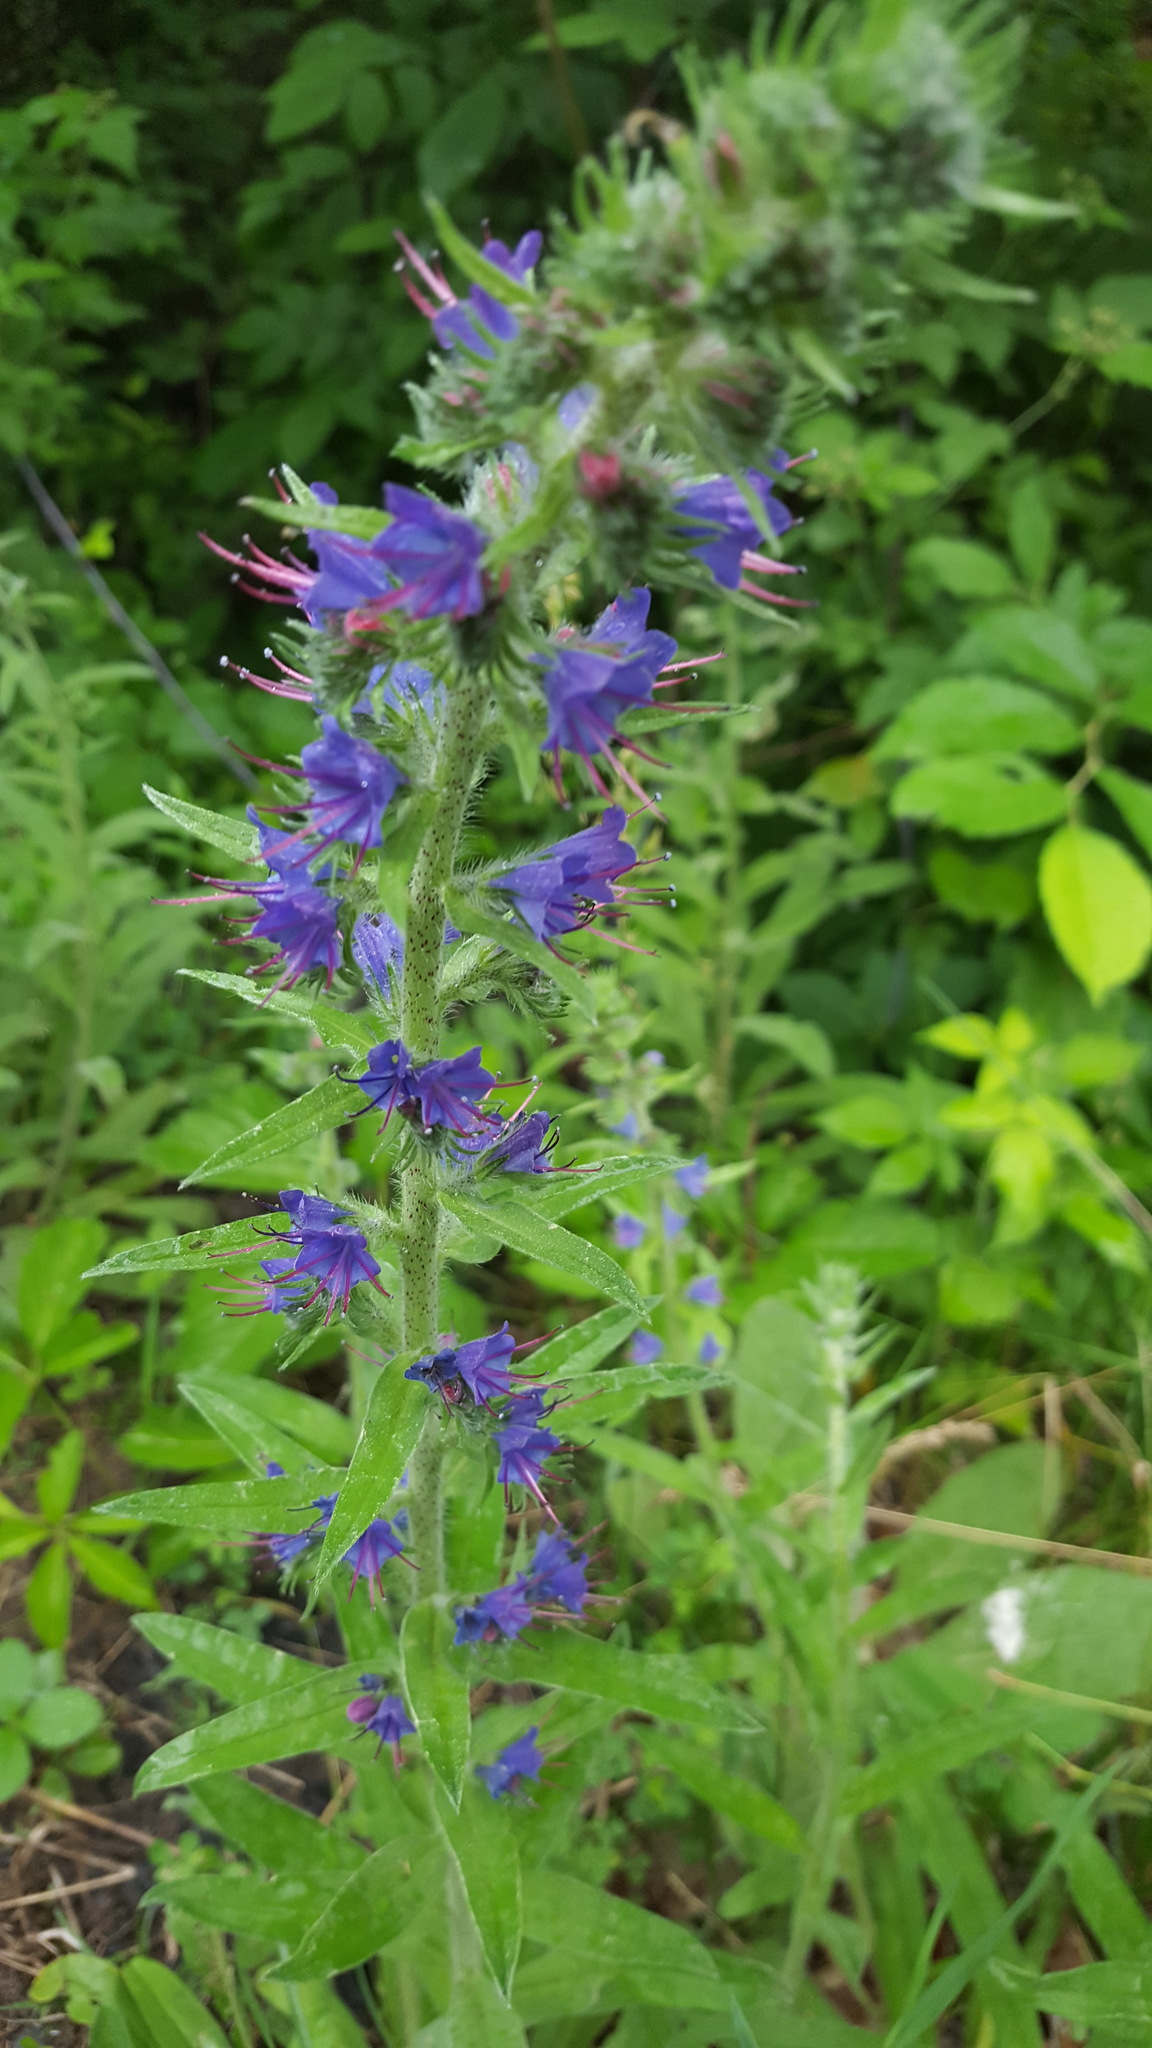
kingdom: Plantae
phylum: Tracheophyta
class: Magnoliopsida
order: Boraginales
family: Boraginaceae
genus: Echium
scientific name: Echium vulgare
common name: Common viper's bugloss
